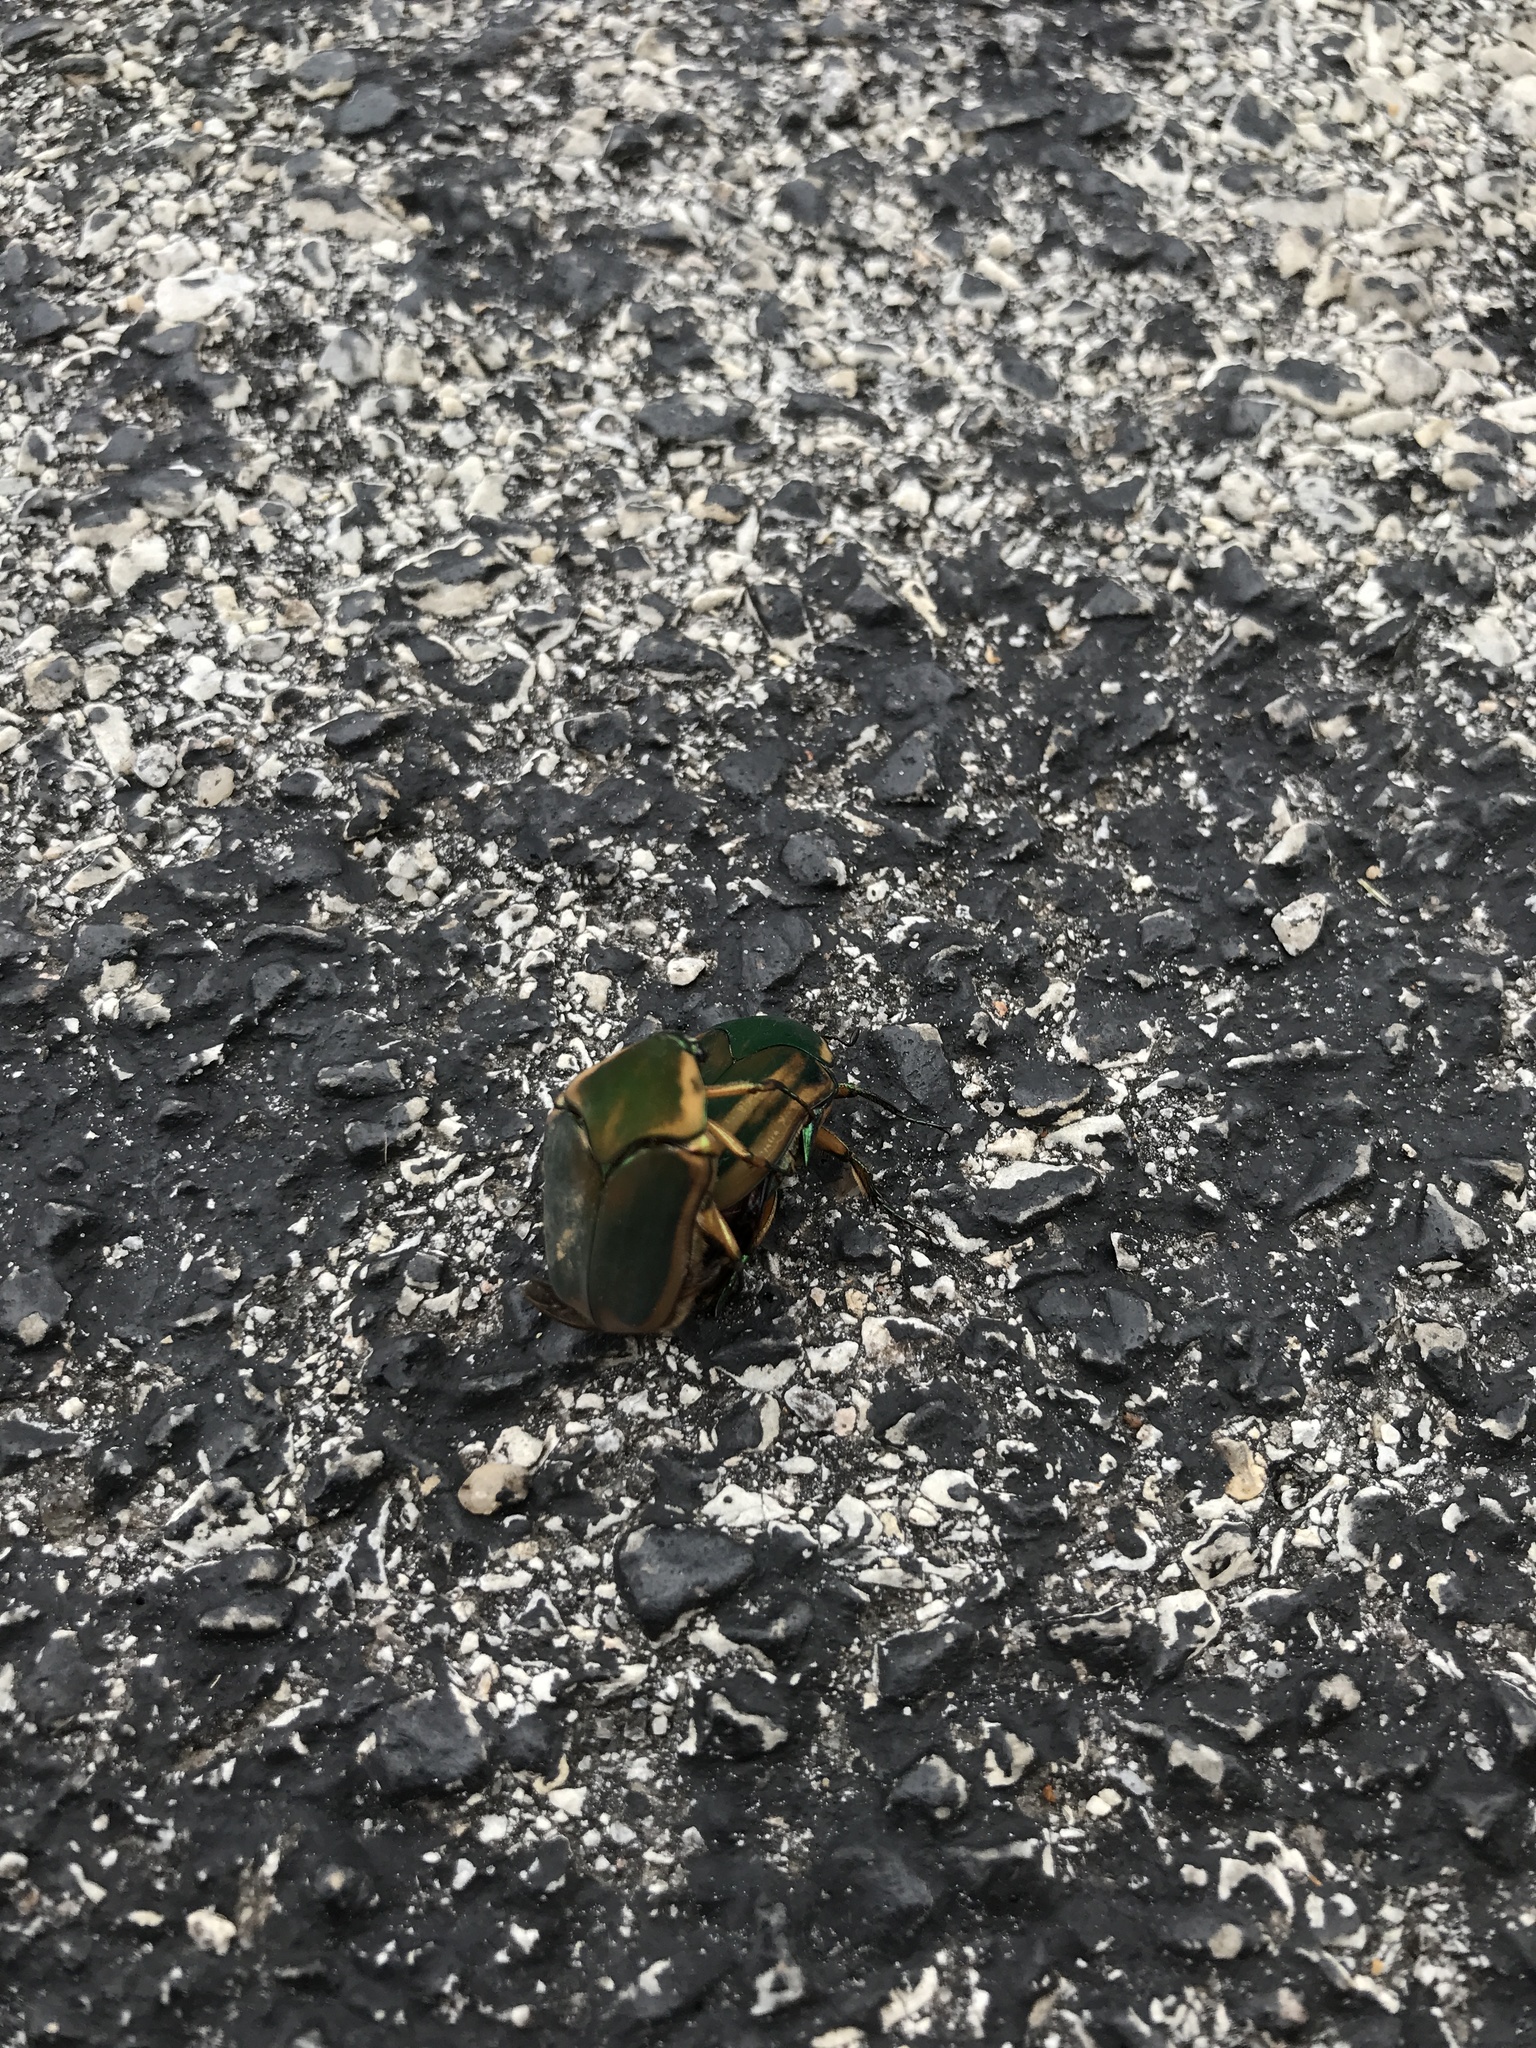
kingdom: Animalia
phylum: Arthropoda
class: Insecta
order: Coleoptera
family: Scarabaeidae
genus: Cotinis
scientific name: Cotinis nitida
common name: Common green june beetle
